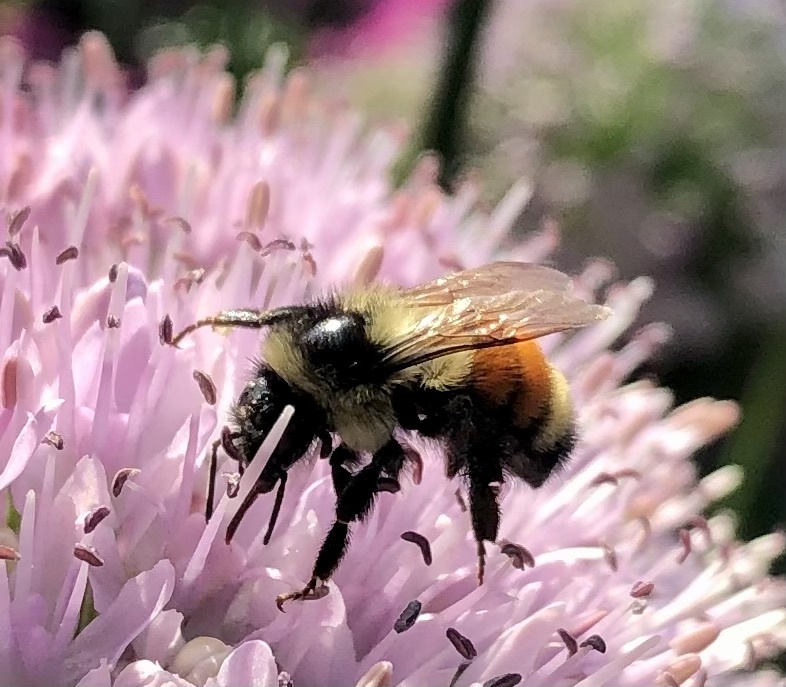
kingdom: Animalia
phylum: Arthropoda
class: Insecta
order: Hymenoptera
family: Apidae
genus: Bombus
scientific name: Bombus ternarius
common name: Tri-colored bumble bee
